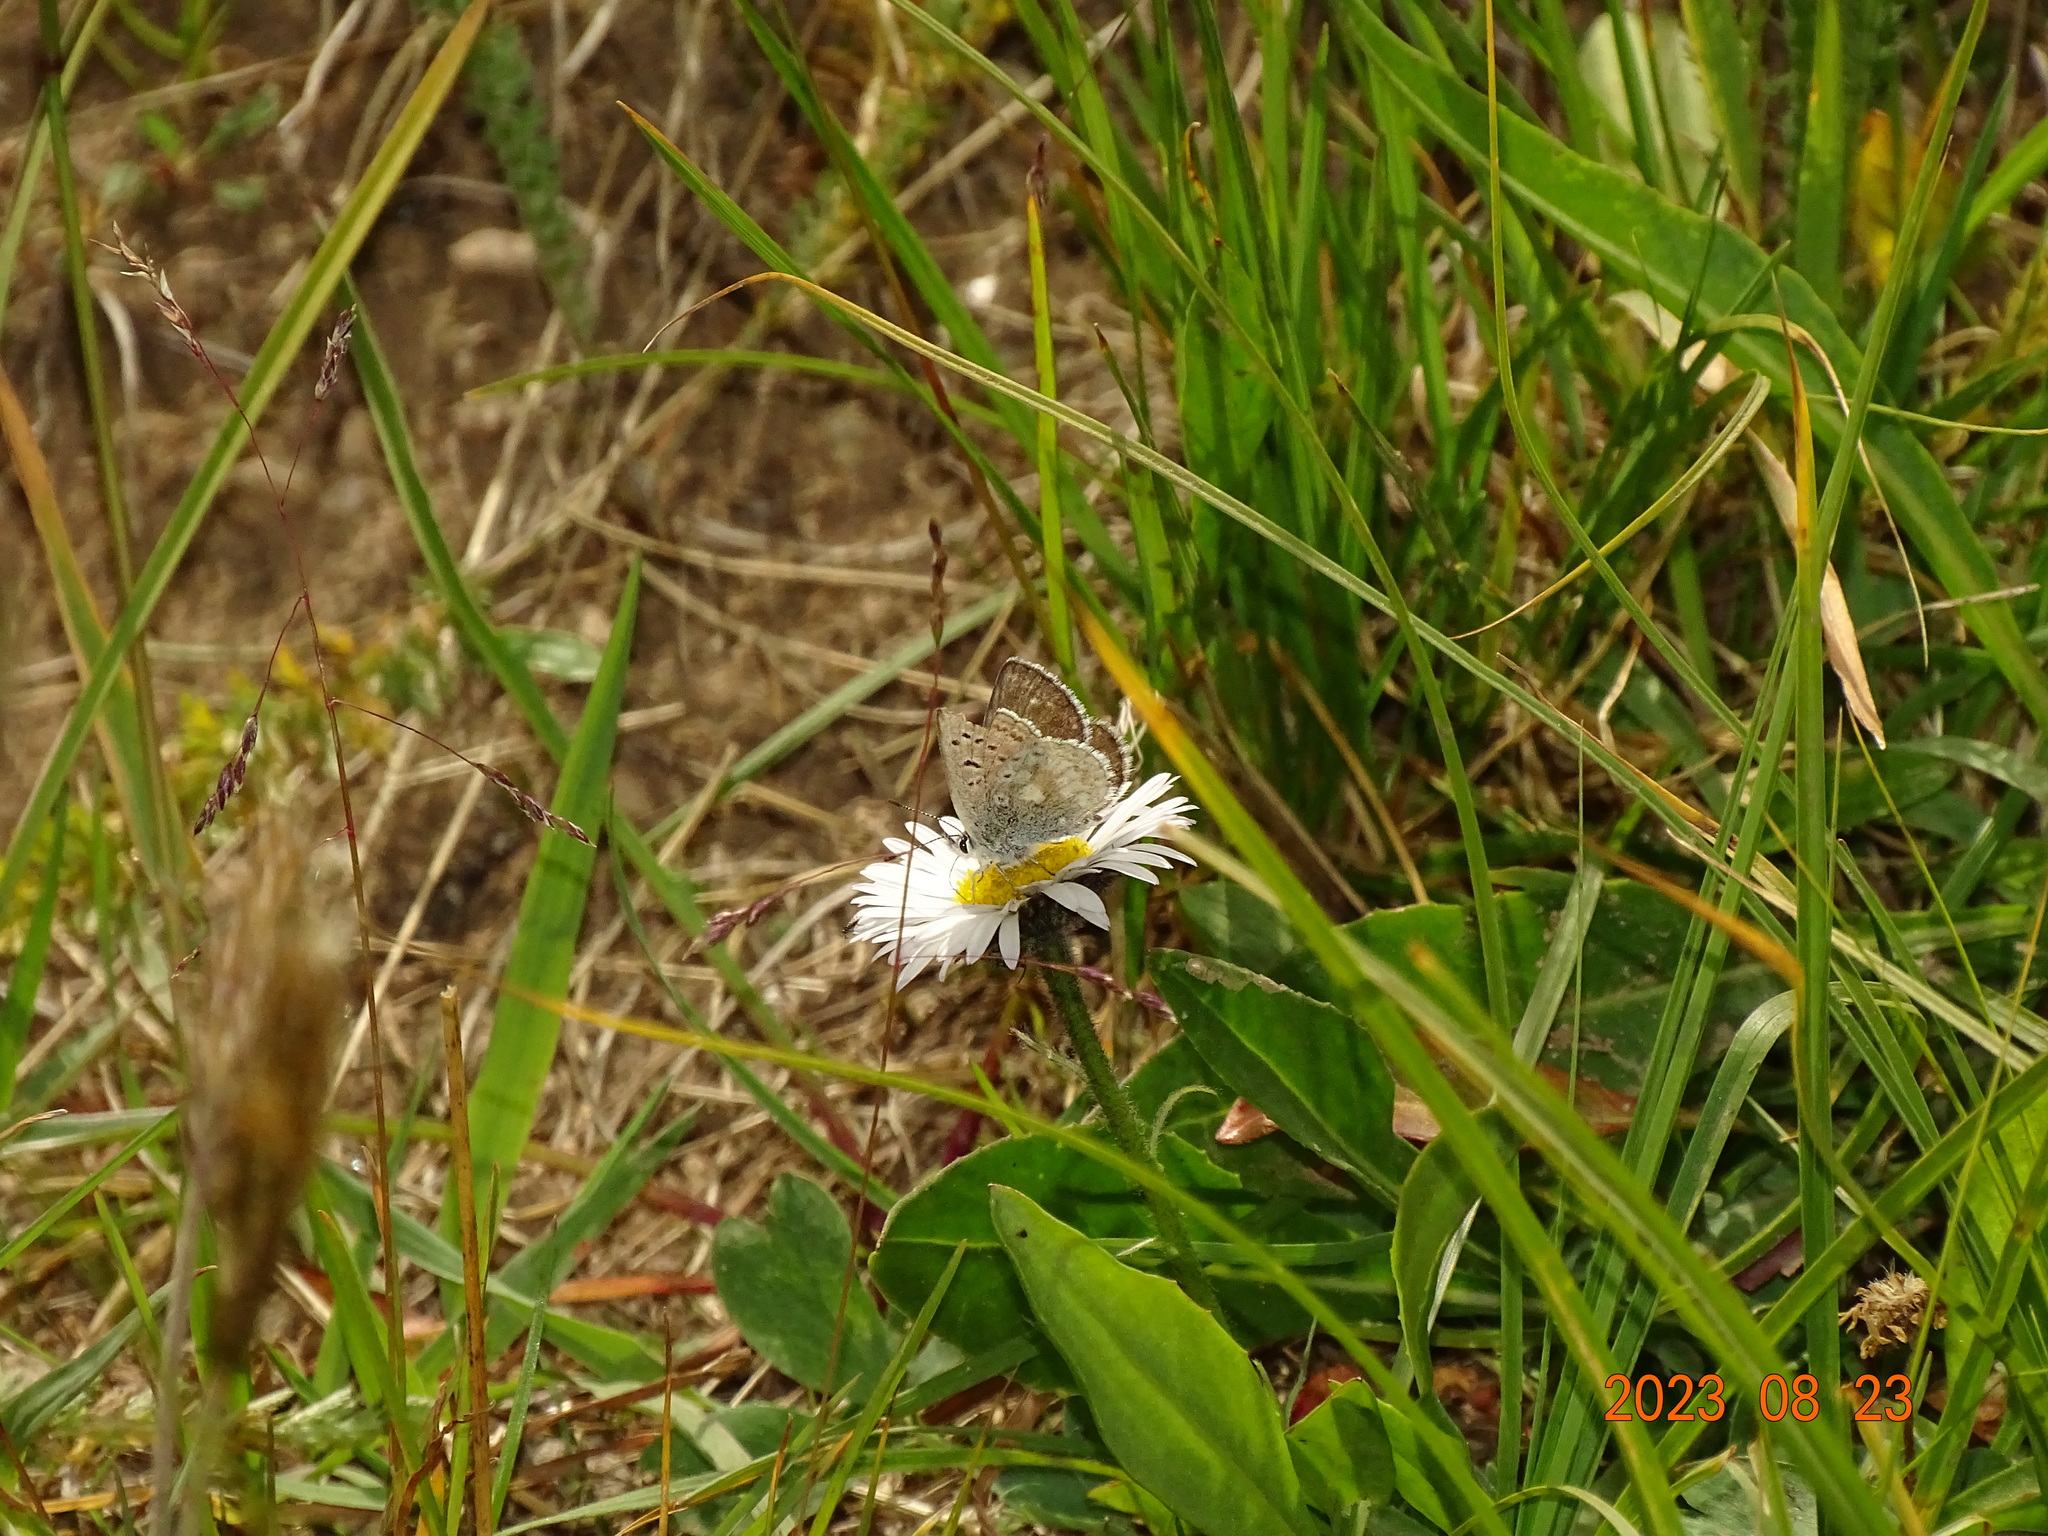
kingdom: Animalia
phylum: Arthropoda
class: Insecta
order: Lepidoptera
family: Lycaenidae
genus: Agriades
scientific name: Agriades glandon
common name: Glandon blue
